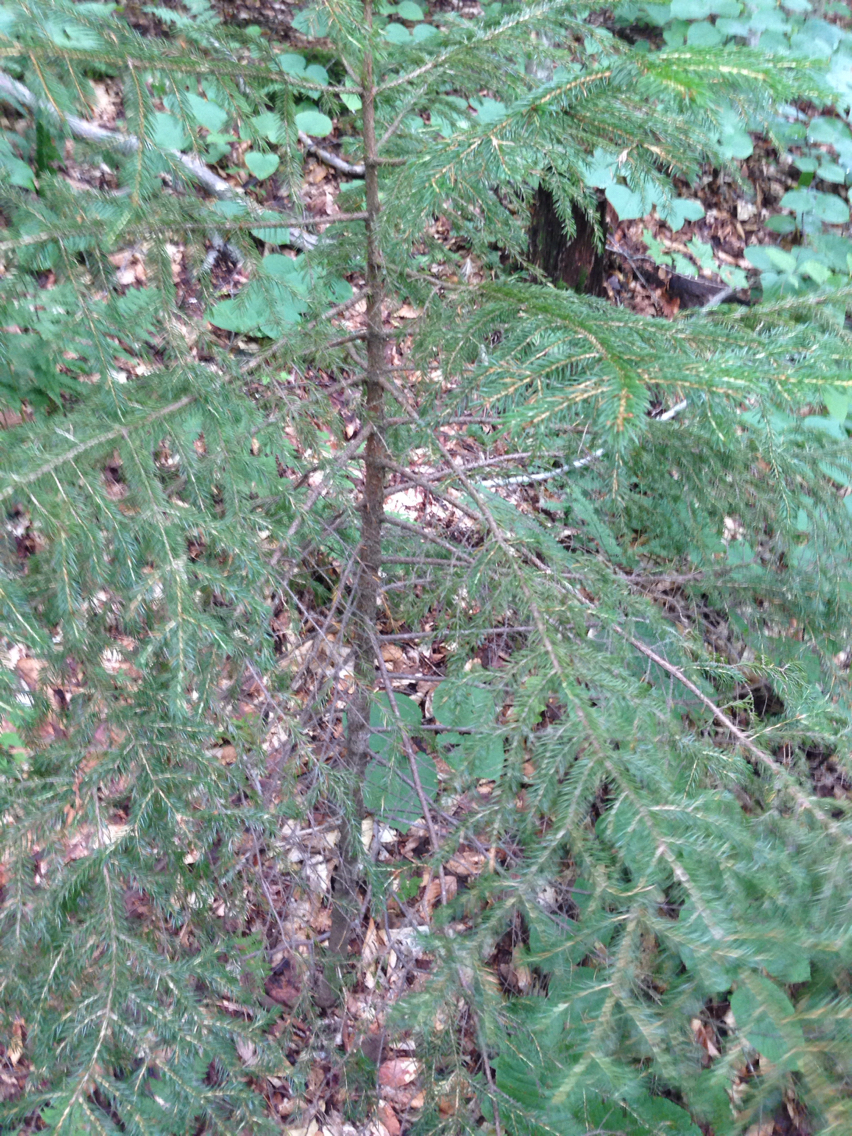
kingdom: Plantae
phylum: Tracheophyta
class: Pinopsida
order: Pinales
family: Pinaceae
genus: Picea
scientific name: Picea rubens
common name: Red spruce
